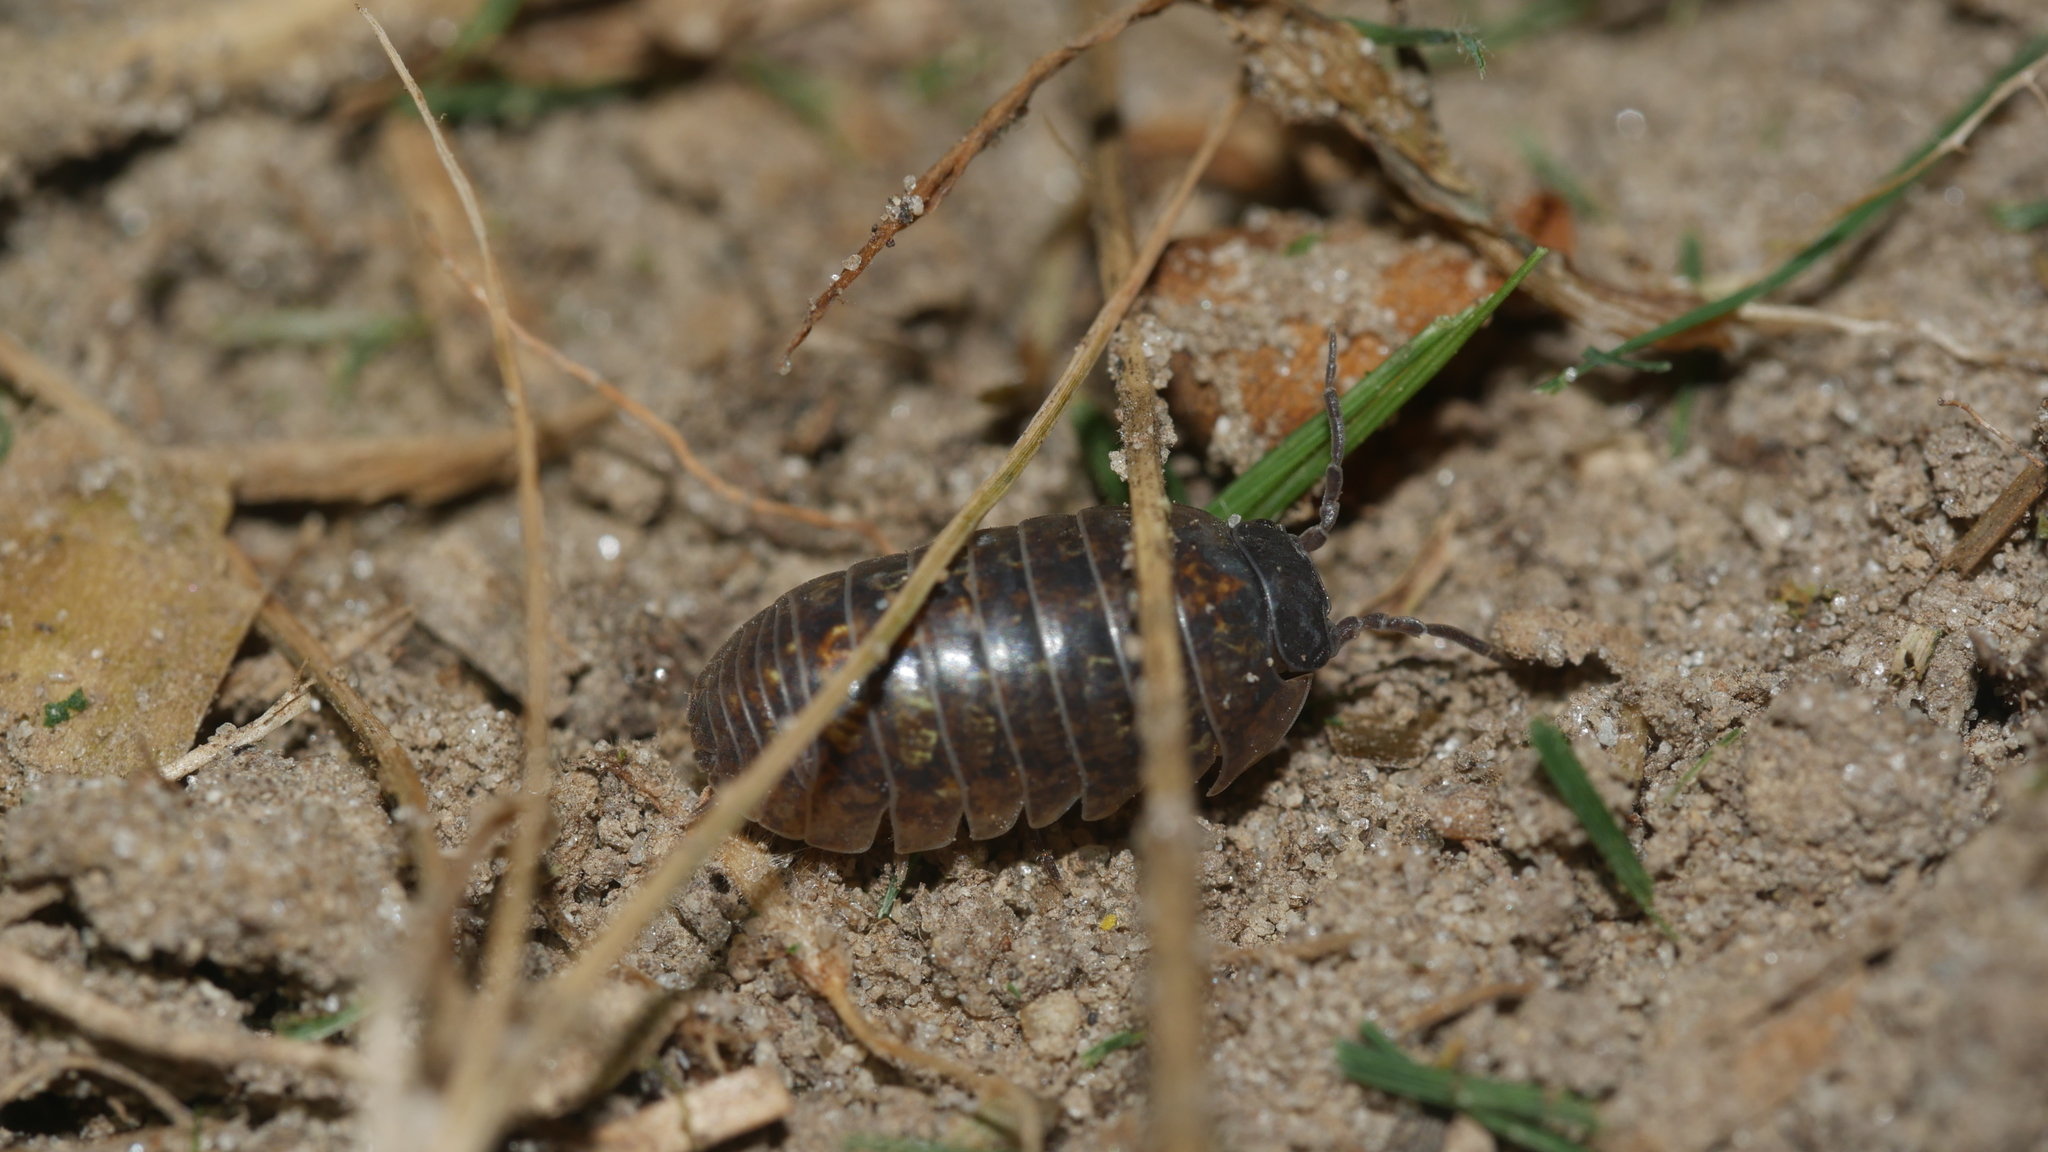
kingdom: Animalia
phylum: Arthropoda
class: Malacostraca
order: Isopoda
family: Armadillidiidae
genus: Armadillidium
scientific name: Armadillidium vulgare
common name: Common pill woodlouse
